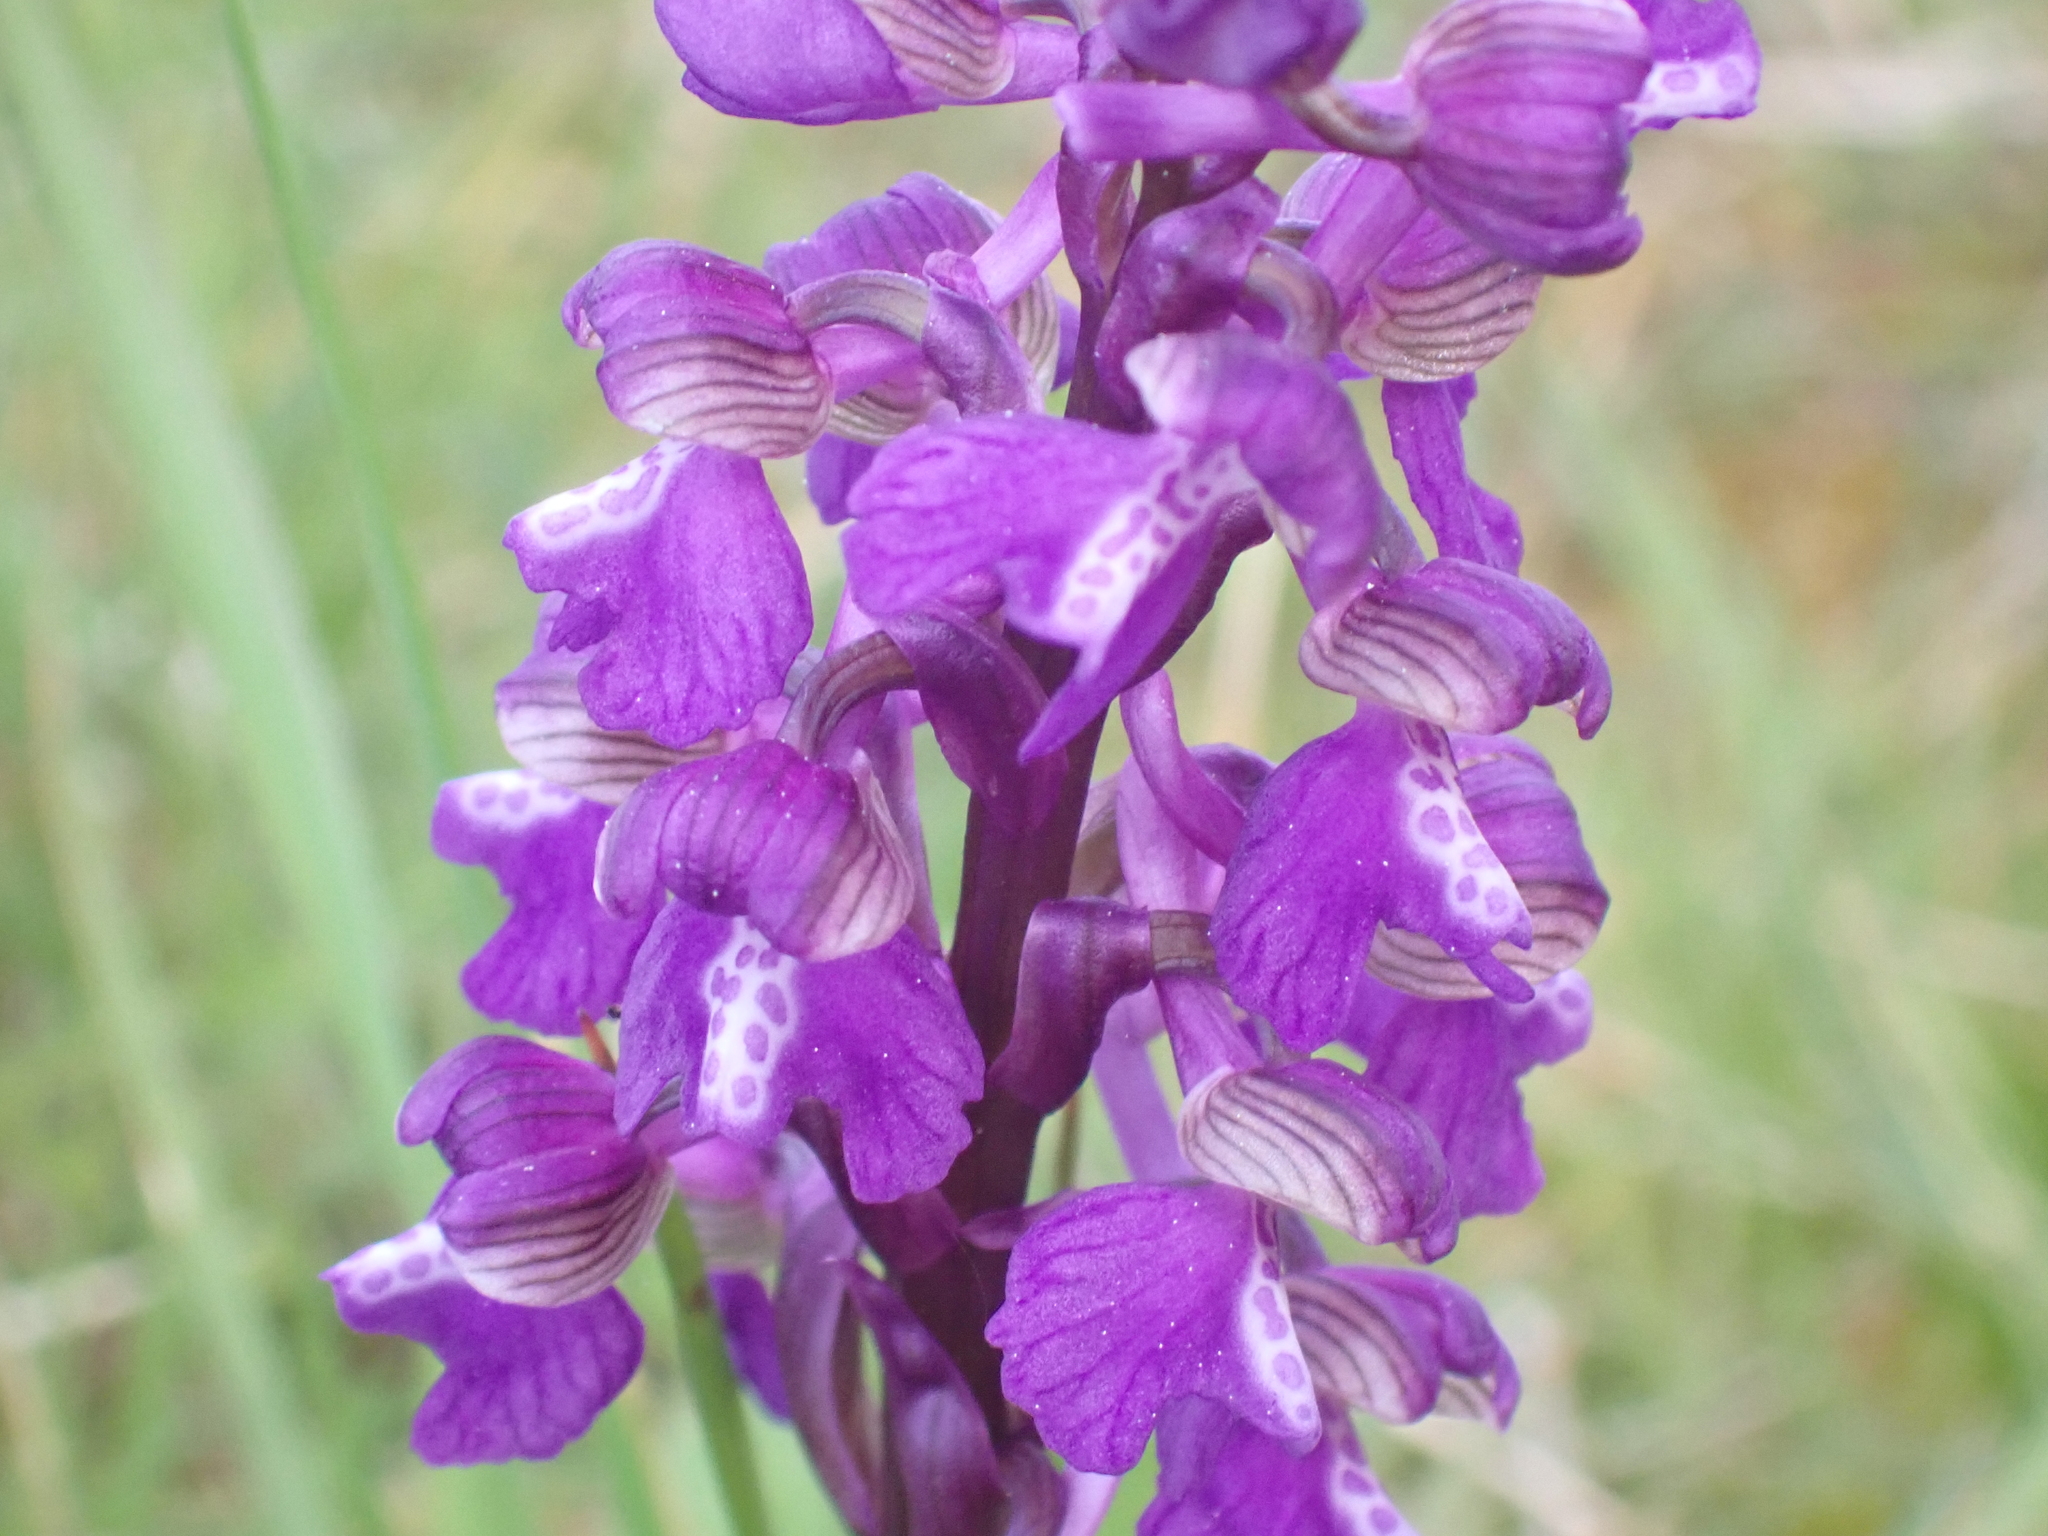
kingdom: Plantae
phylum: Tracheophyta
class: Liliopsida
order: Asparagales
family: Orchidaceae
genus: Anacamptis
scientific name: Anacamptis morio
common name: Green-winged orchid
